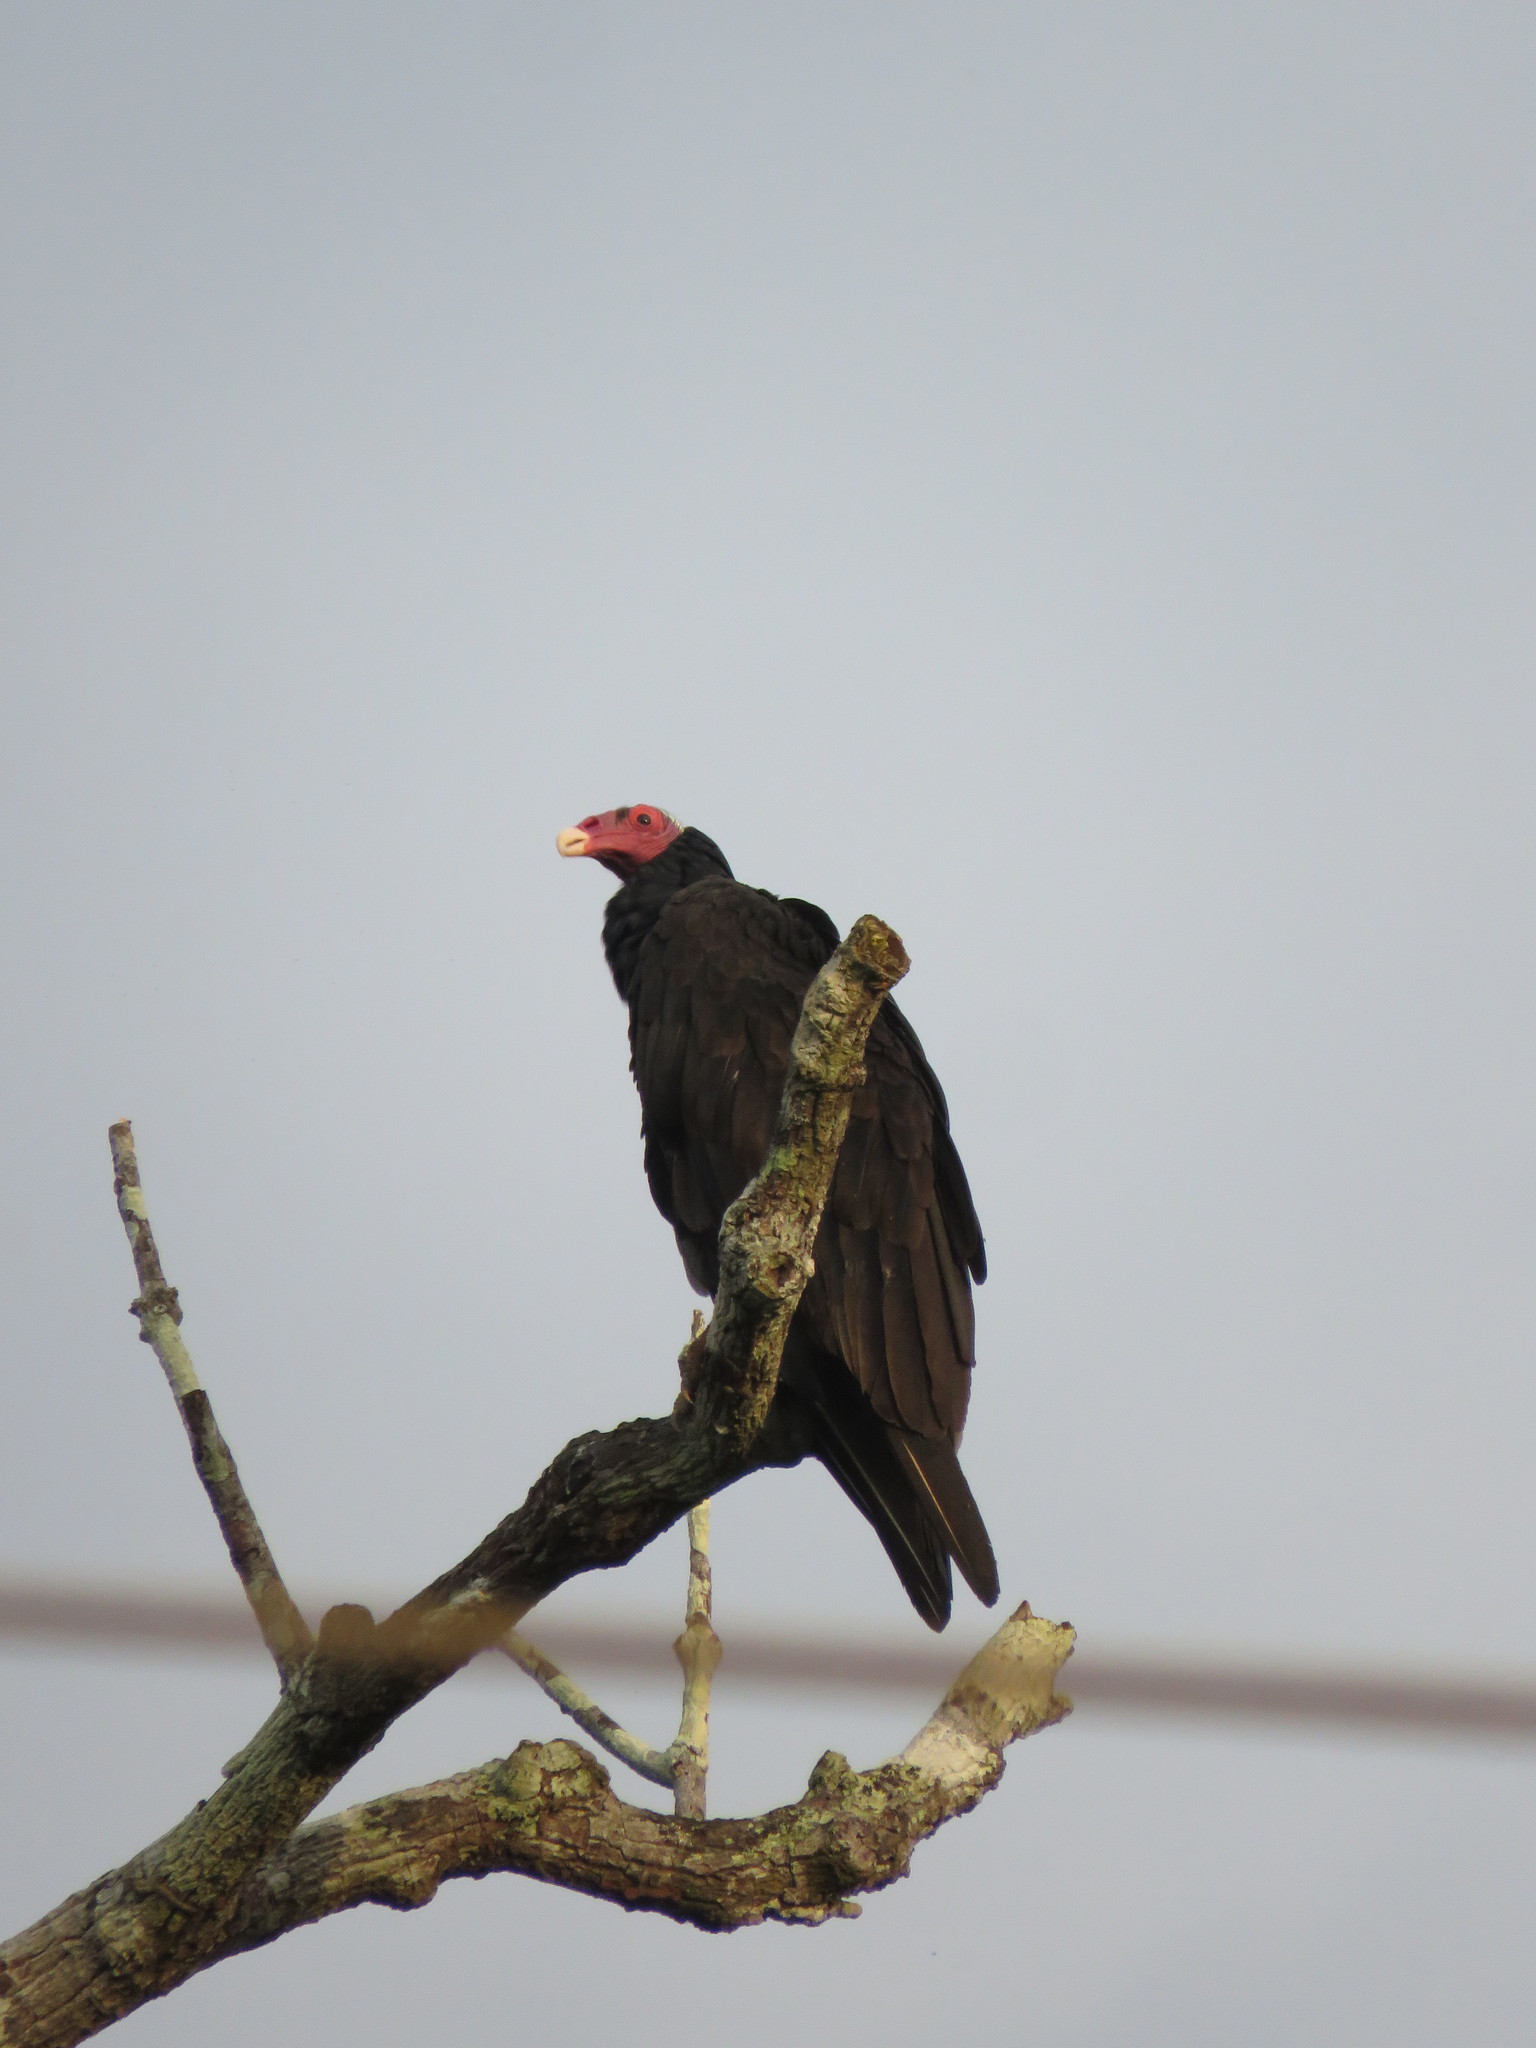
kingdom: Animalia
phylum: Chordata
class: Aves
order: Accipitriformes
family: Cathartidae
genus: Cathartes
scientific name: Cathartes aura
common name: Turkey vulture
